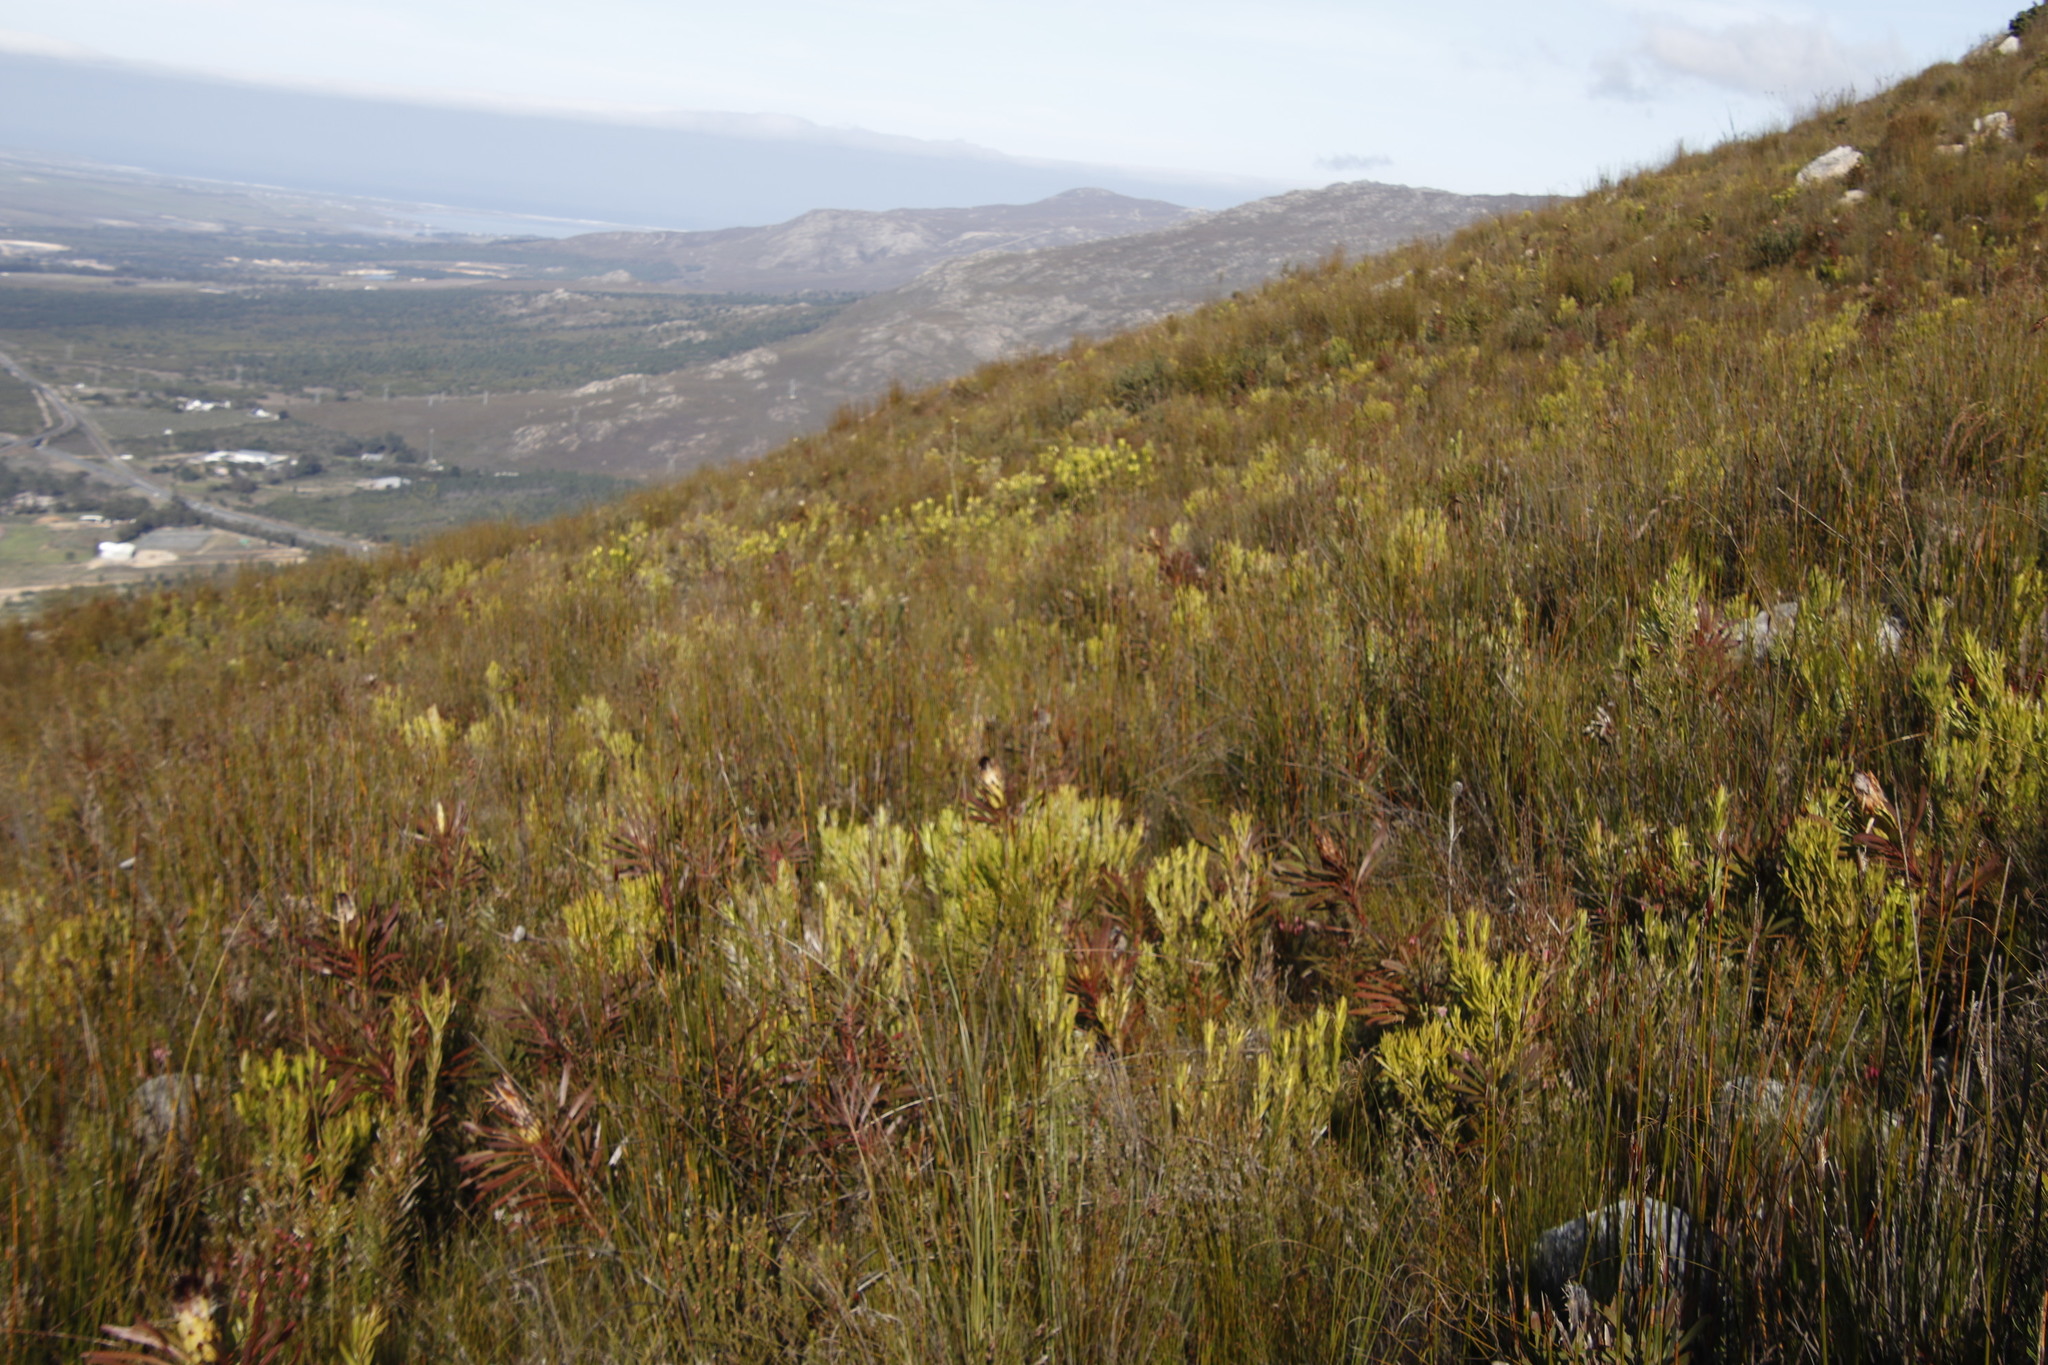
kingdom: Plantae
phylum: Tracheophyta
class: Magnoliopsida
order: Proteales
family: Proteaceae
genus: Leucadendron
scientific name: Leucadendron xanthoconus
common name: Sickle-leaf conebush
